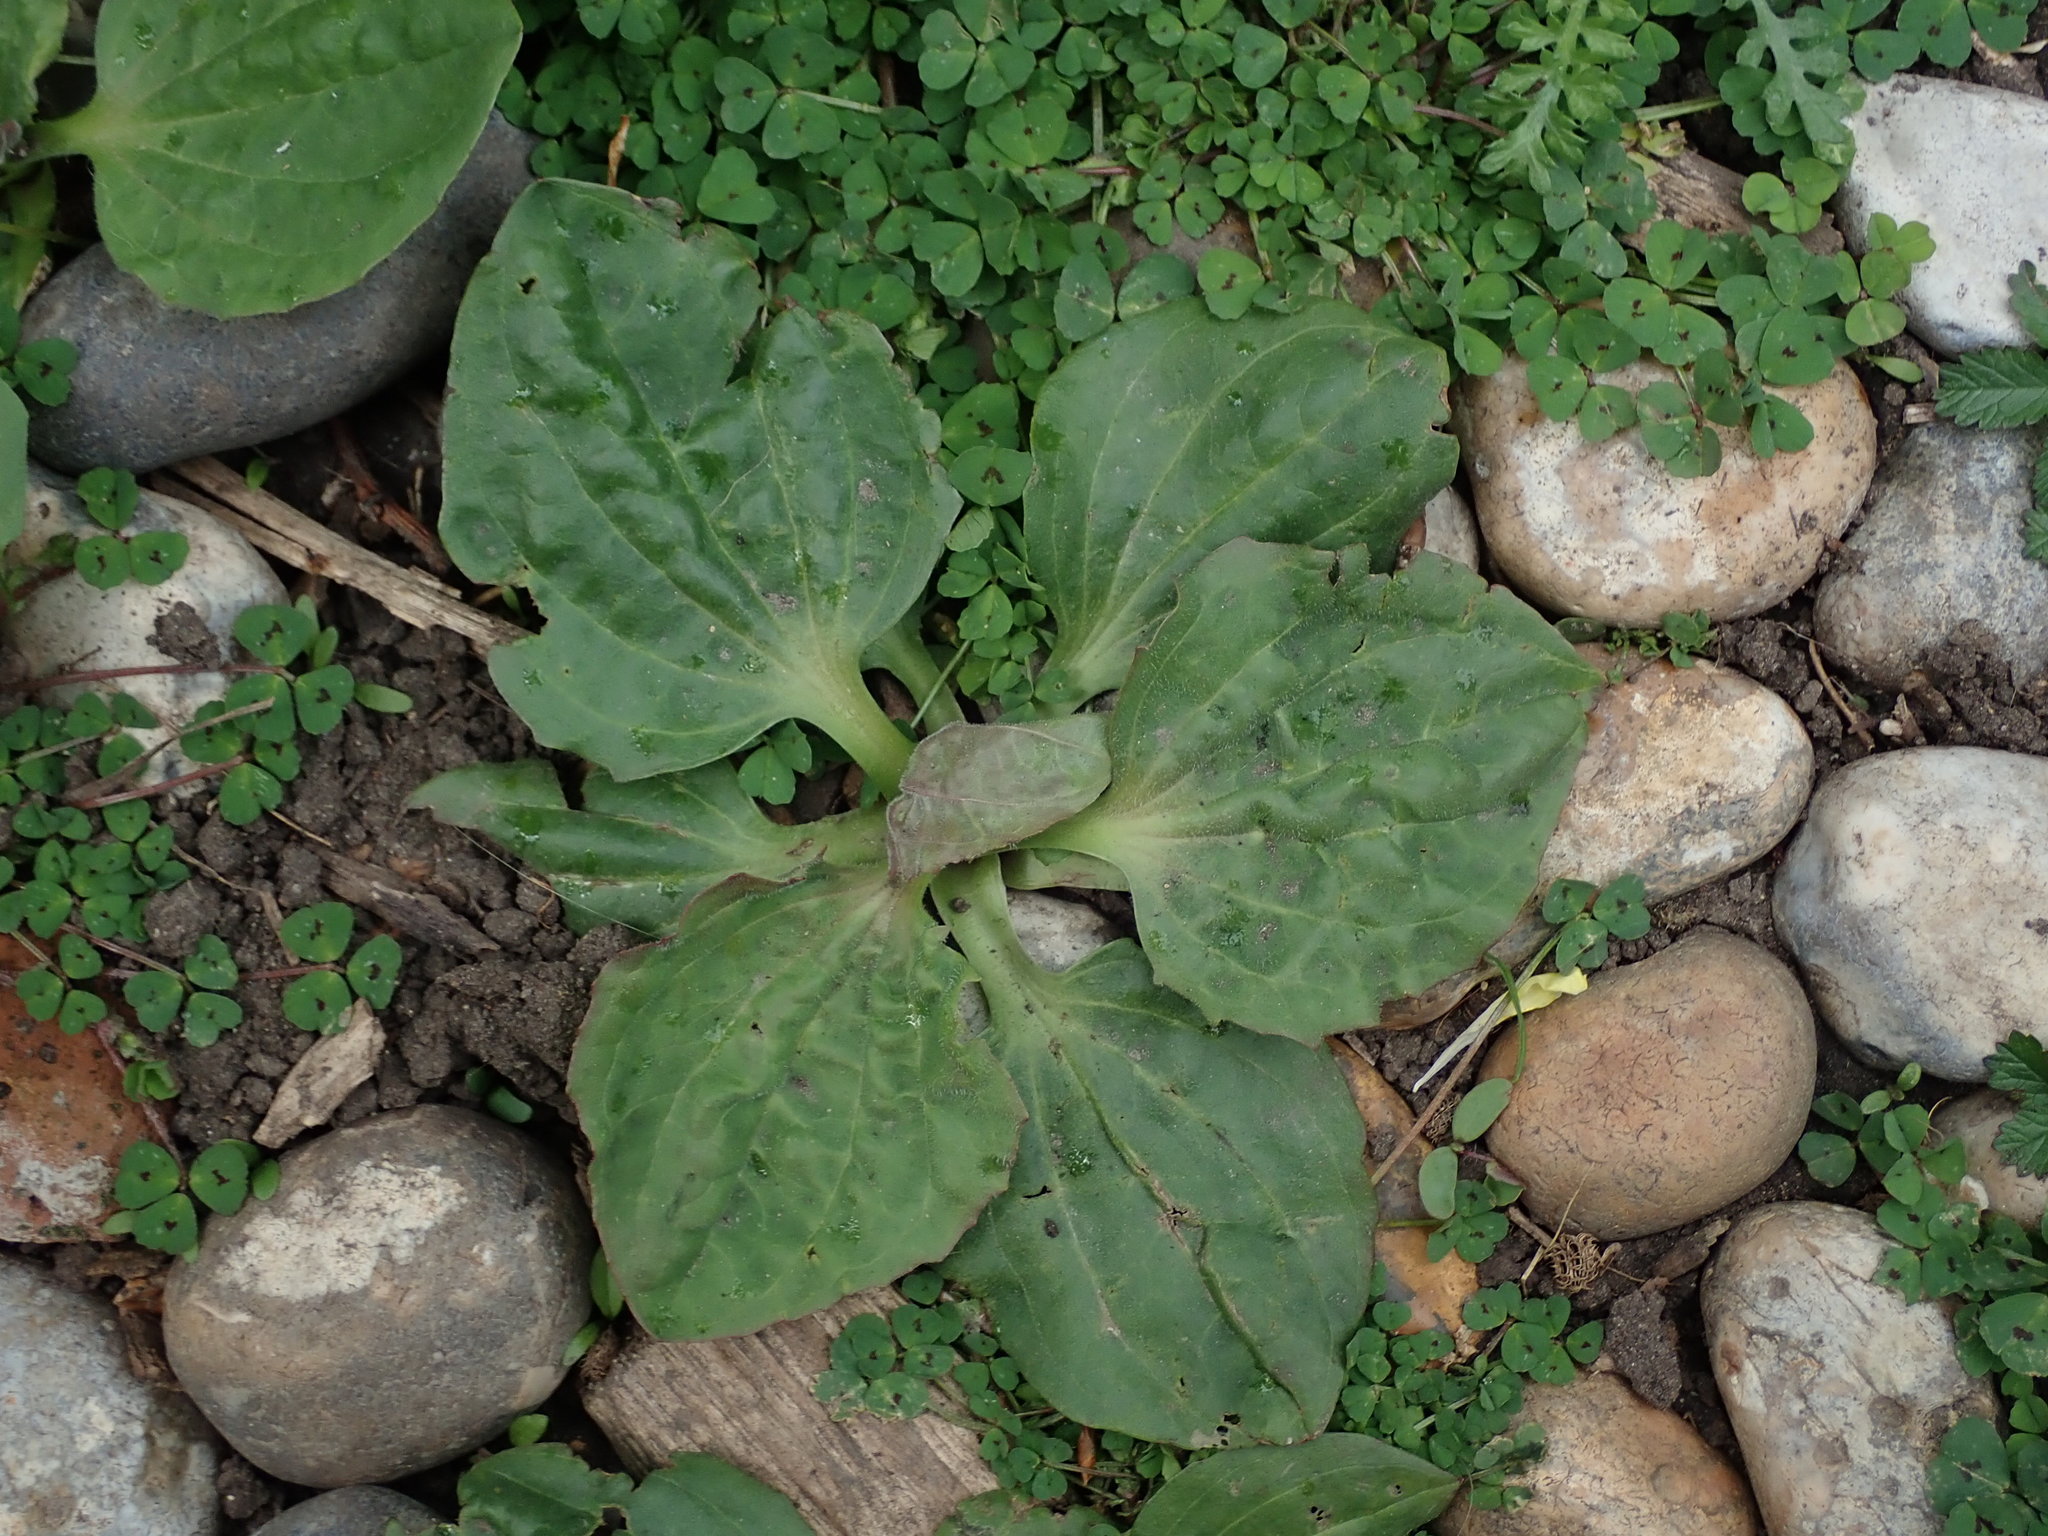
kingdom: Plantae
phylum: Tracheophyta
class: Magnoliopsida
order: Lamiales
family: Plantaginaceae
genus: Plantago
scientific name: Plantago major
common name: Common plantain
